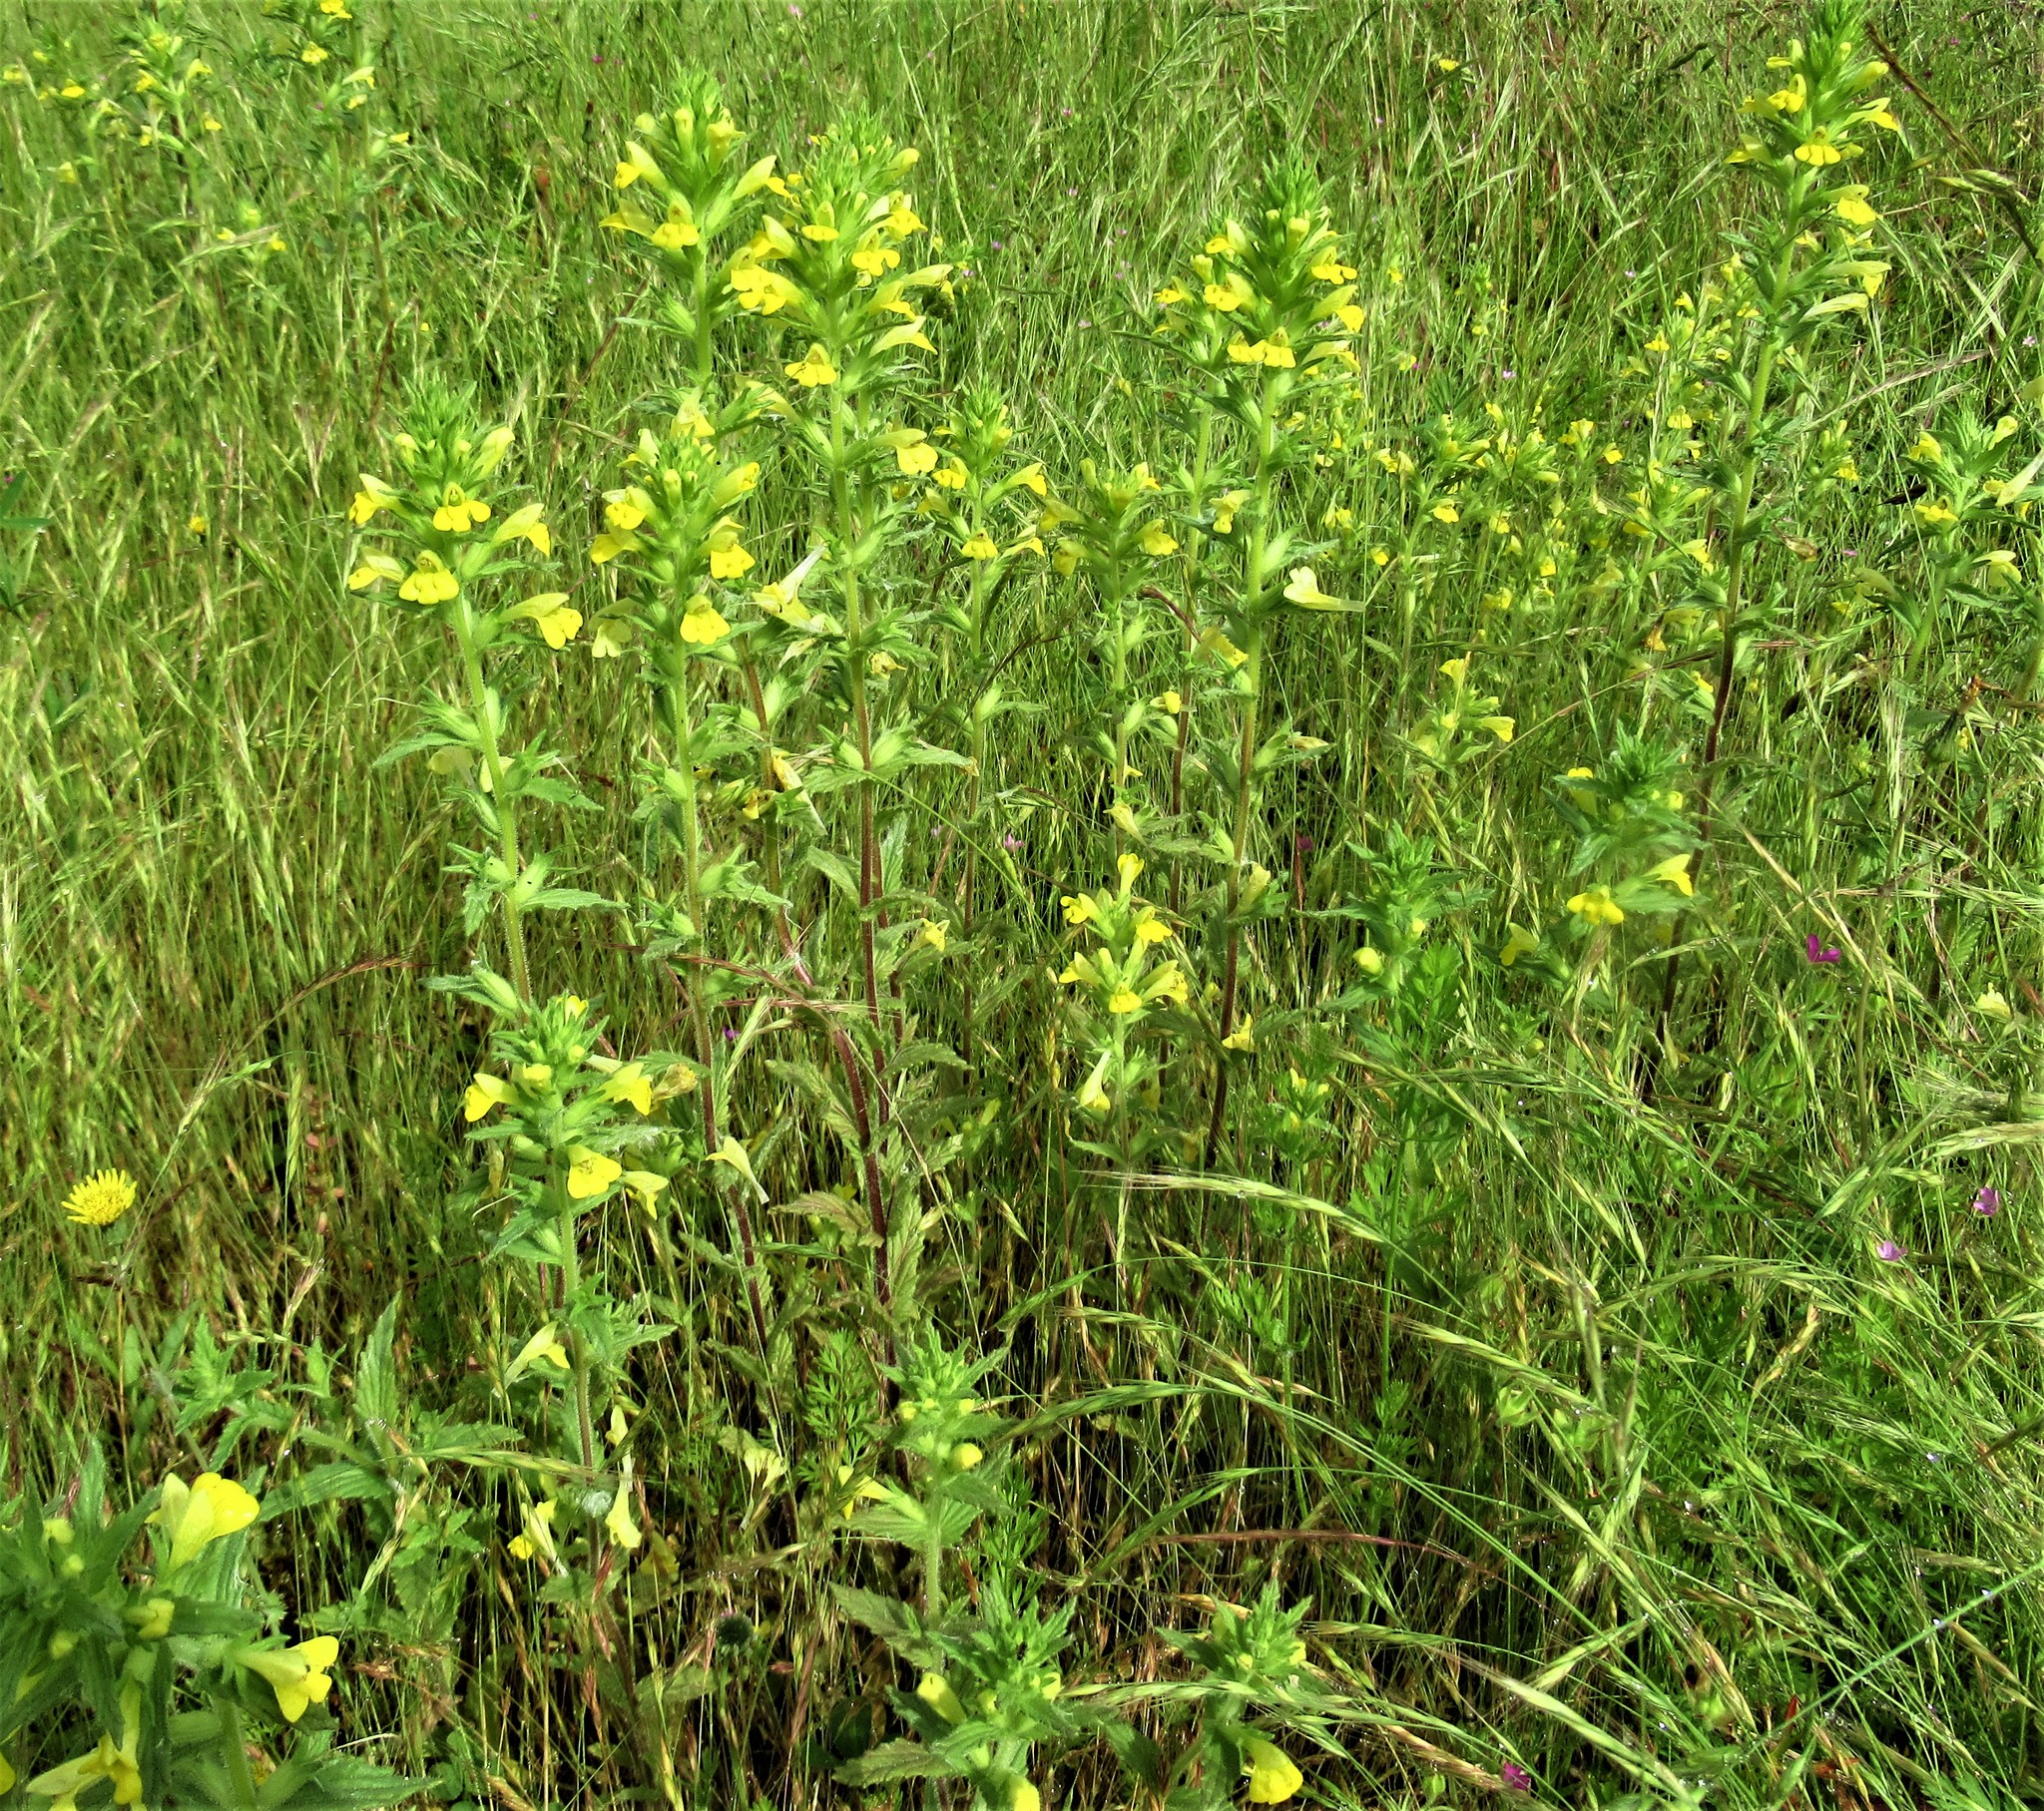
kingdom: Plantae
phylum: Tracheophyta
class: Magnoliopsida
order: Lamiales
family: Orobanchaceae
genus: Bellardia
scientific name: Bellardia viscosa
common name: Sticky parentucellia
